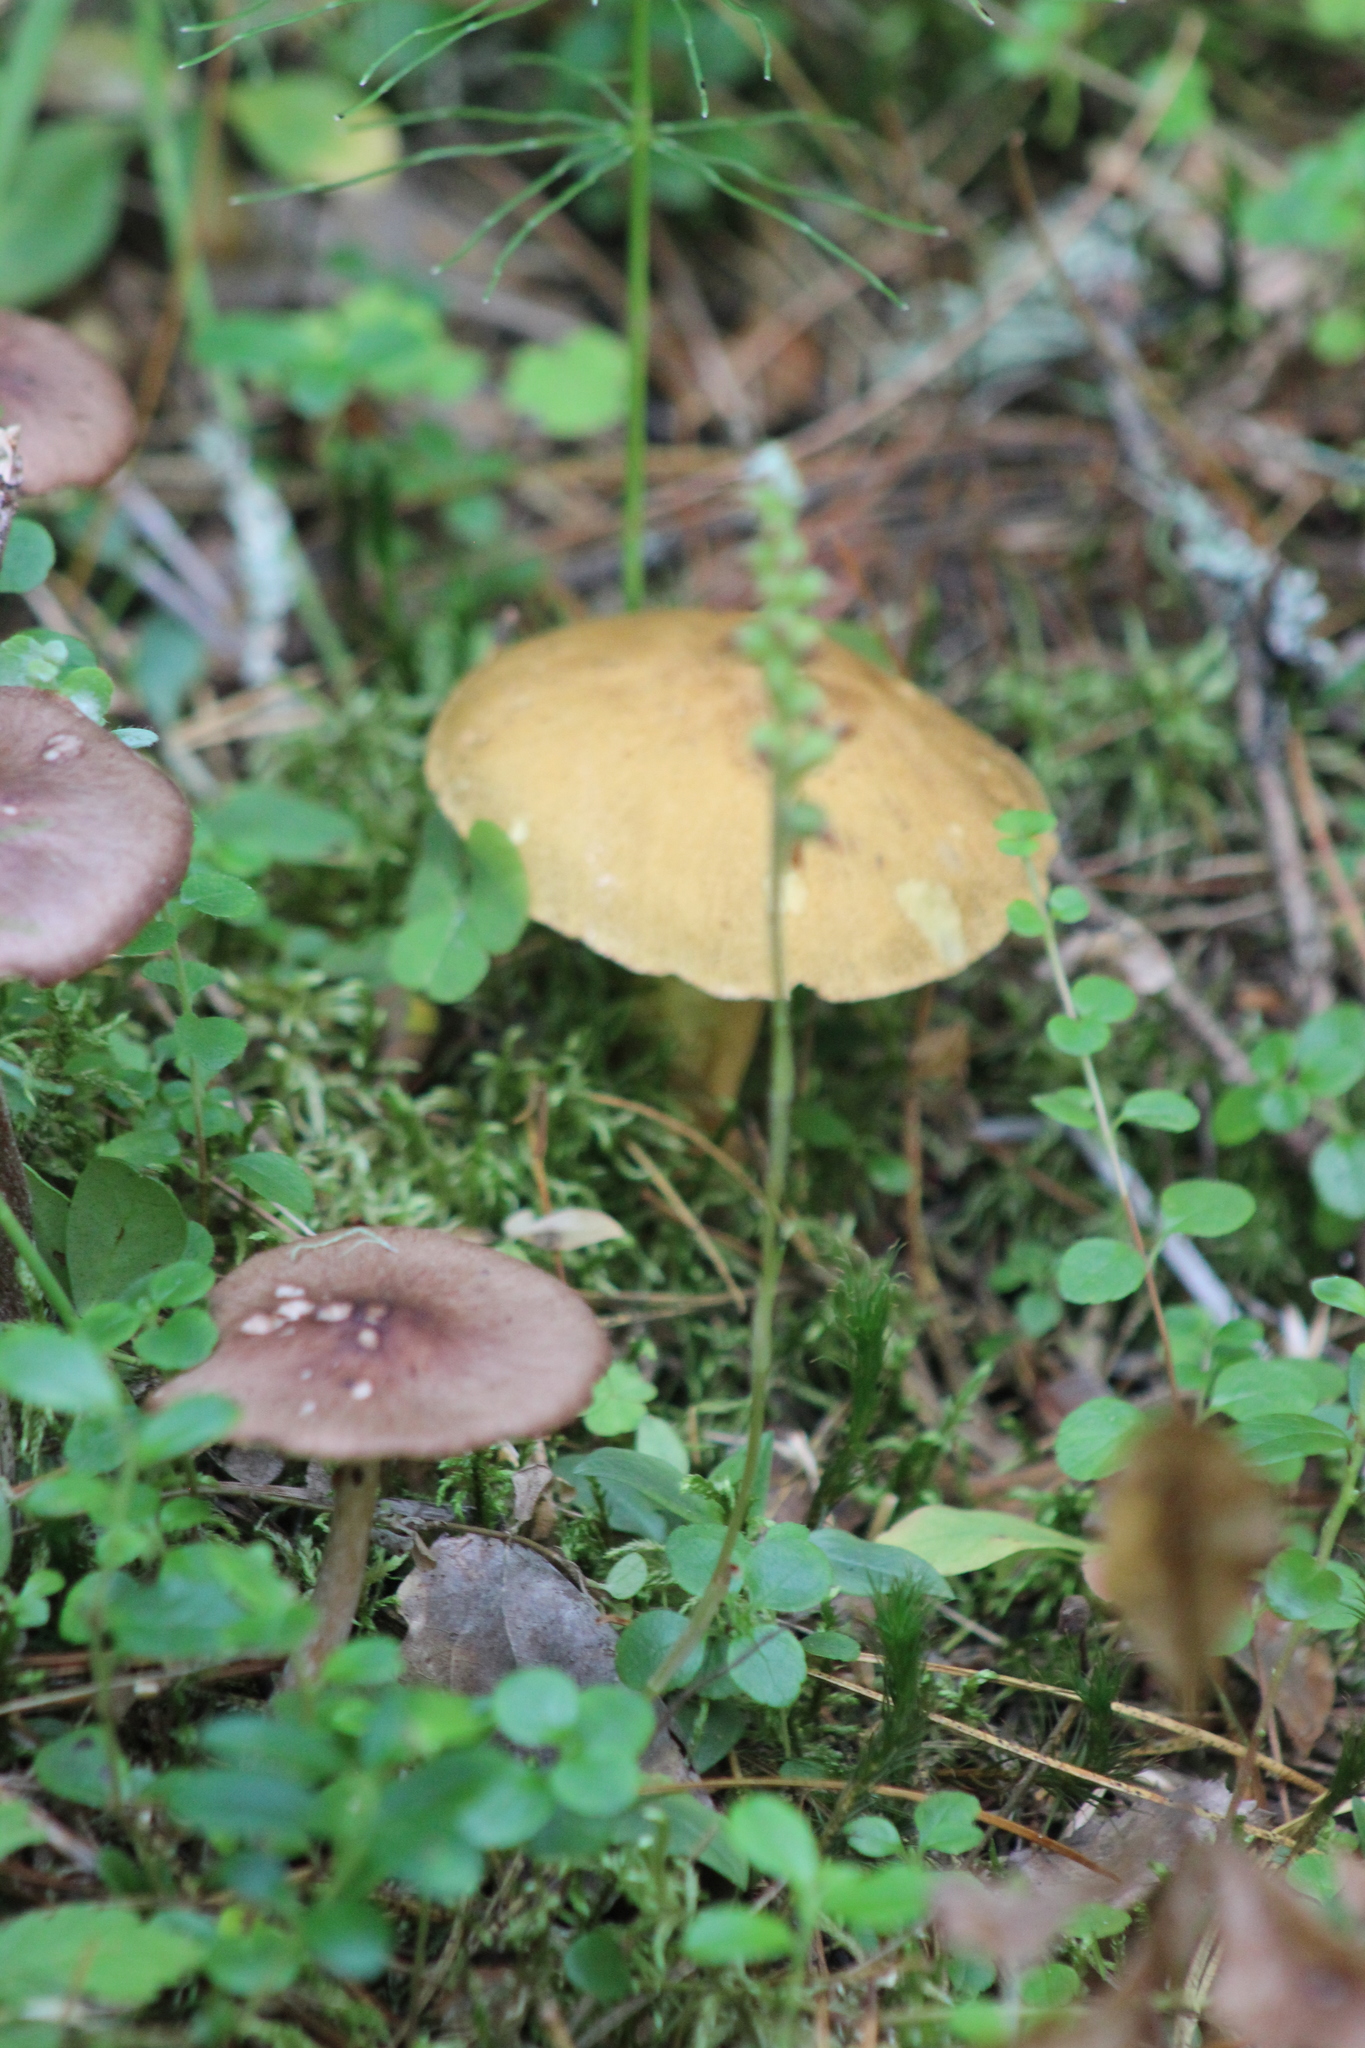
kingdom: Plantae
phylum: Tracheophyta
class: Liliopsida
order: Asparagales
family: Orchidaceae
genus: Goodyera
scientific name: Goodyera repens
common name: Creeping lady's-tresses
